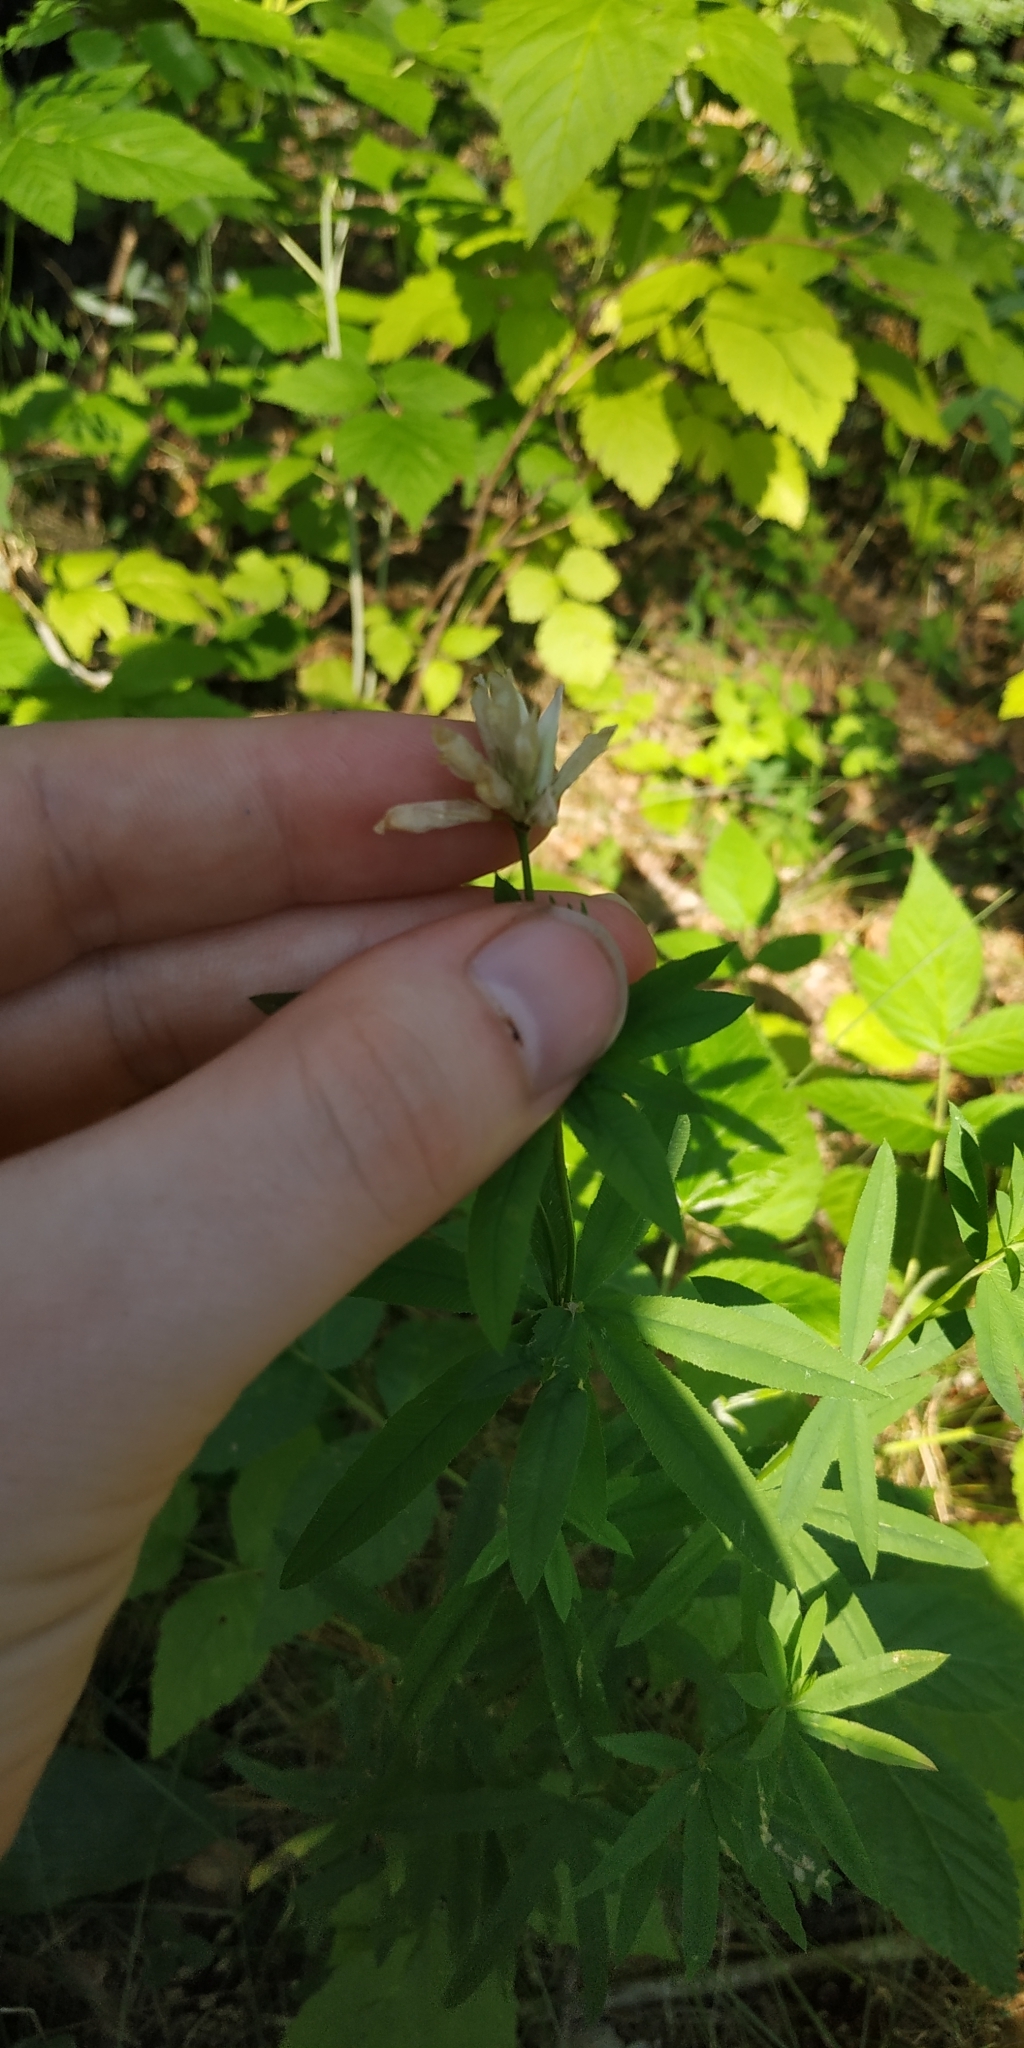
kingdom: Plantae
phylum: Tracheophyta
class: Magnoliopsida
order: Fabales
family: Fabaceae
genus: Trifolium
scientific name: Trifolium lupinaster
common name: Lupine clover
